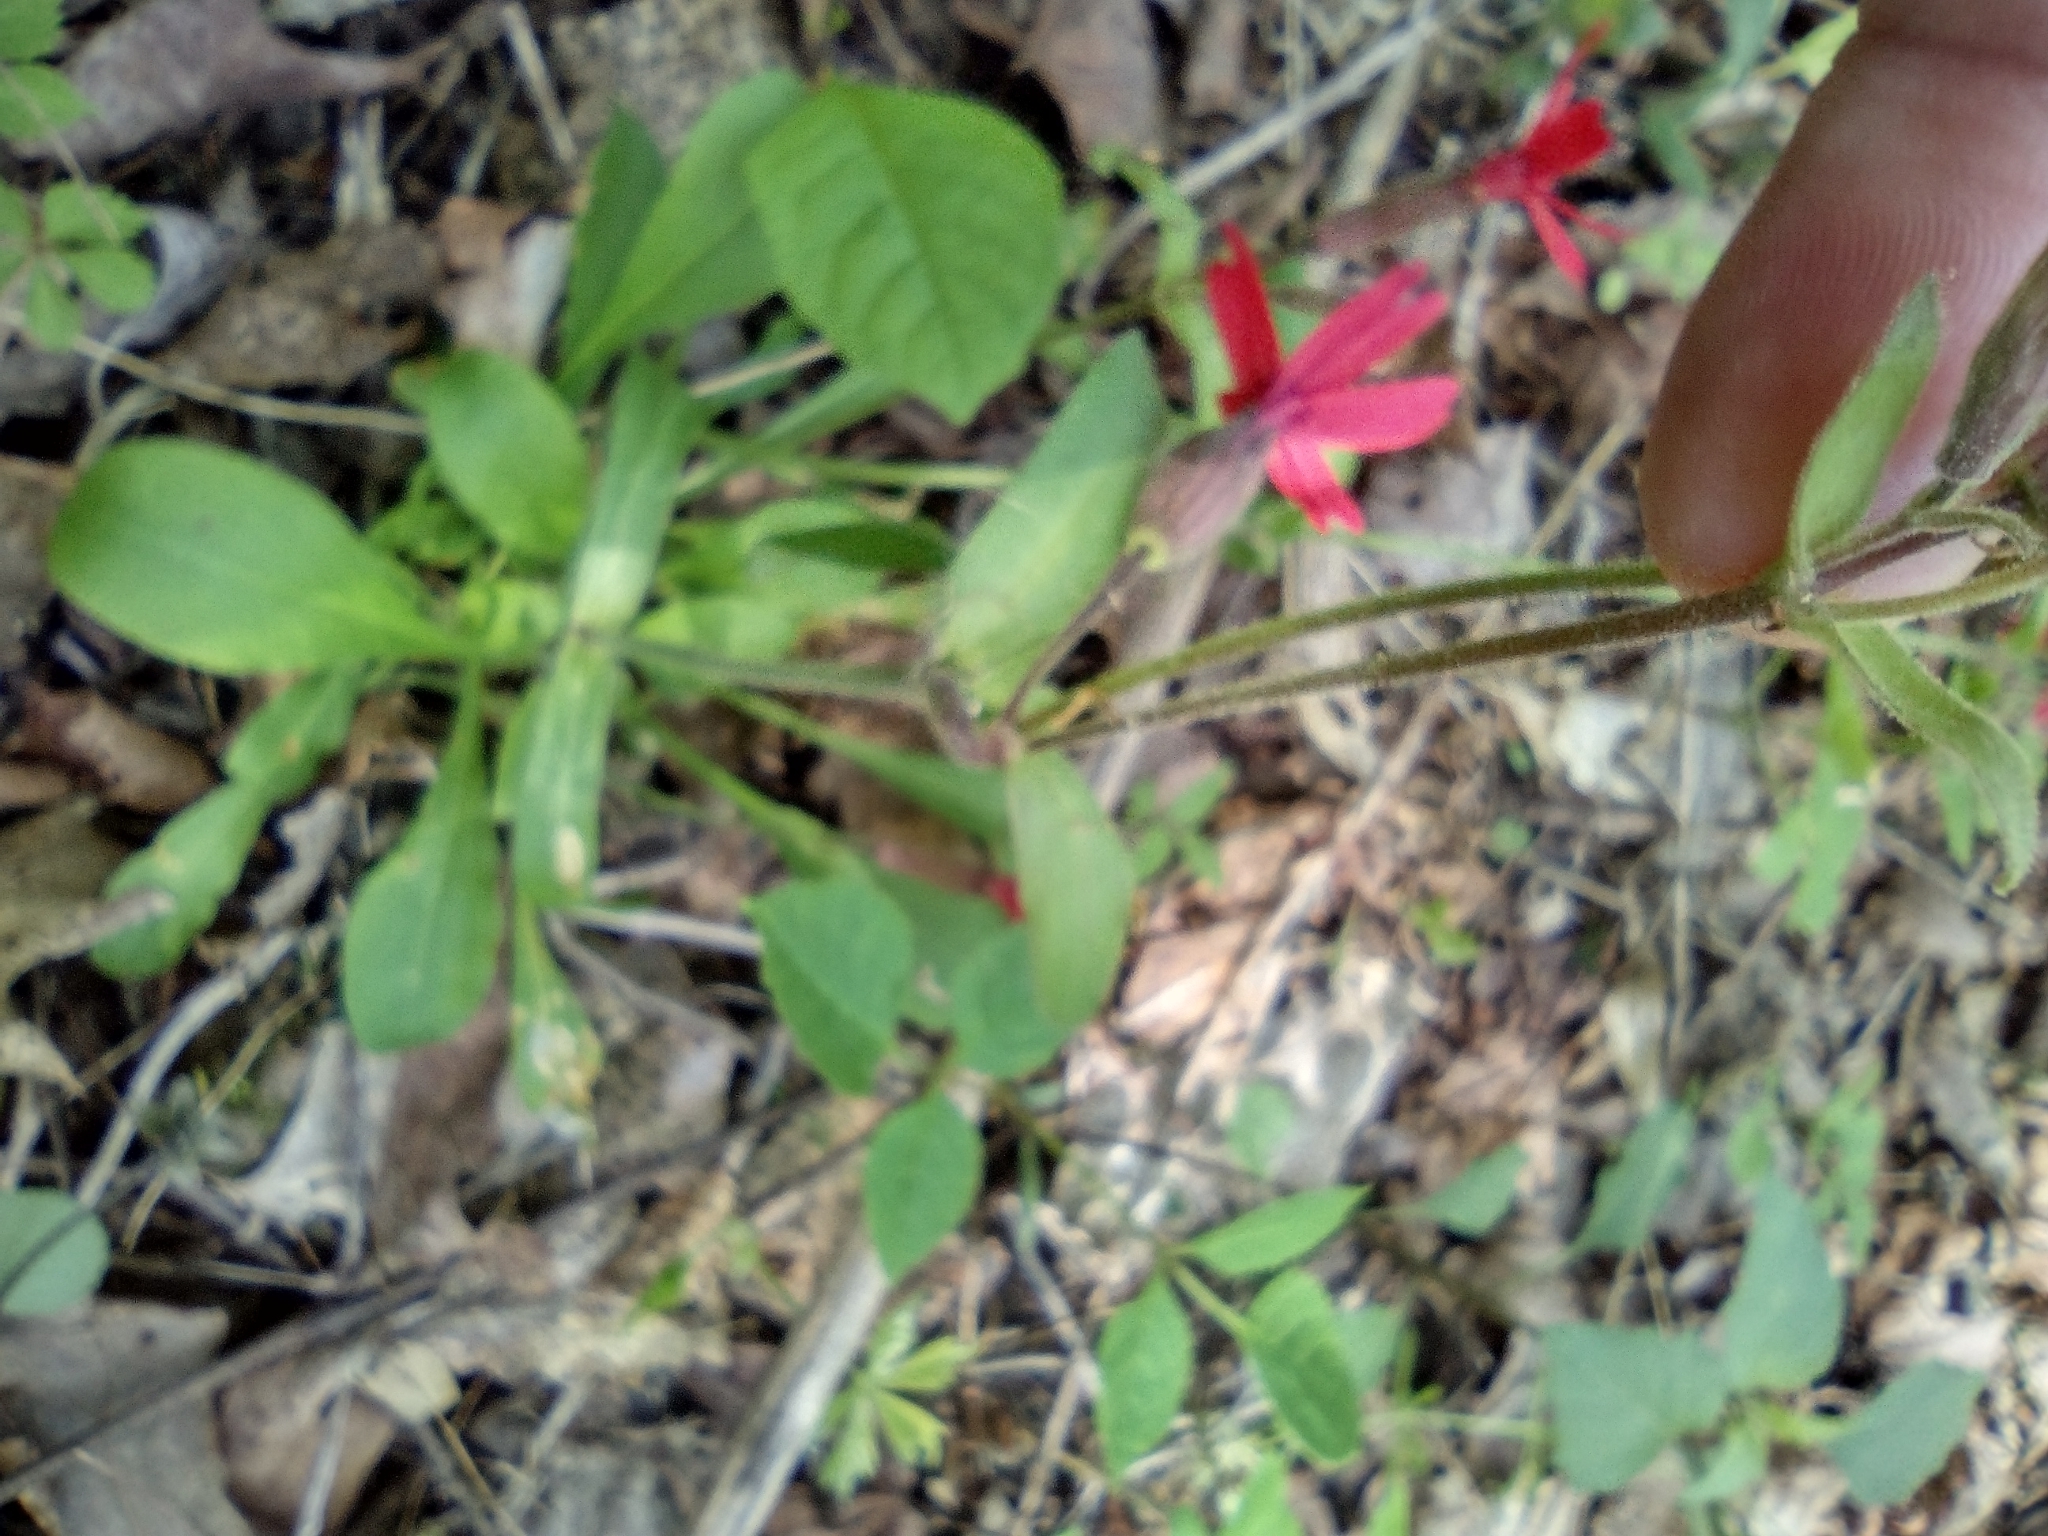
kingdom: Plantae
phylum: Tracheophyta
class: Magnoliopsida
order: Caryophyllales
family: Caryophyllaceae
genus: Silene
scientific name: Silene virginica
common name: Fire-pink
